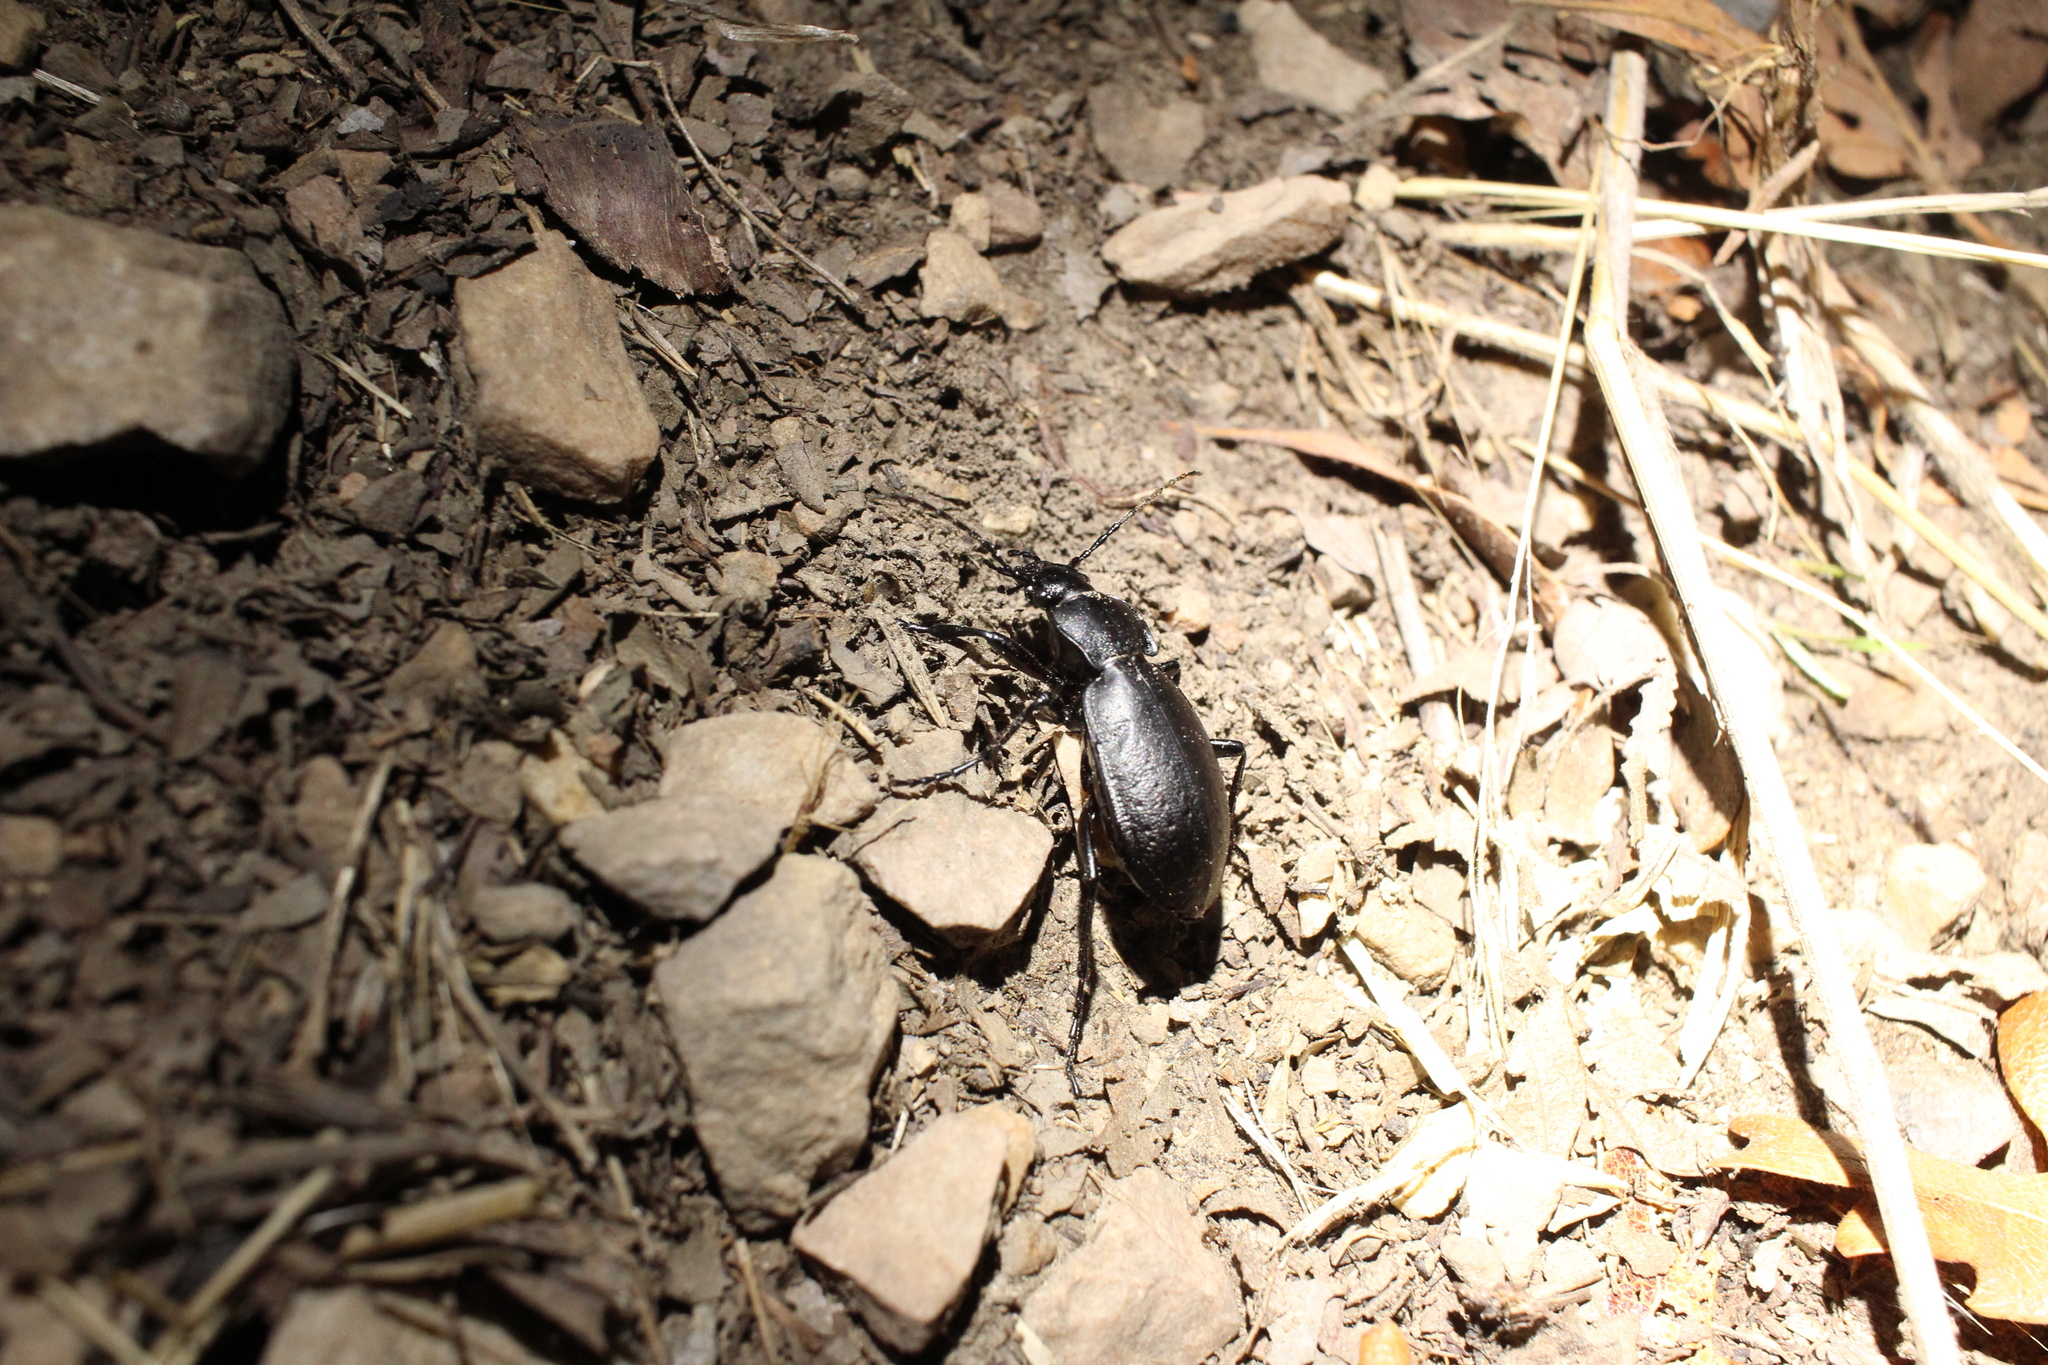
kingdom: Animalia
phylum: Arthropoda
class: Insecta
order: Coleoptera
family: Carabidae
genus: Carabus
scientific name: Carabus taedatus
